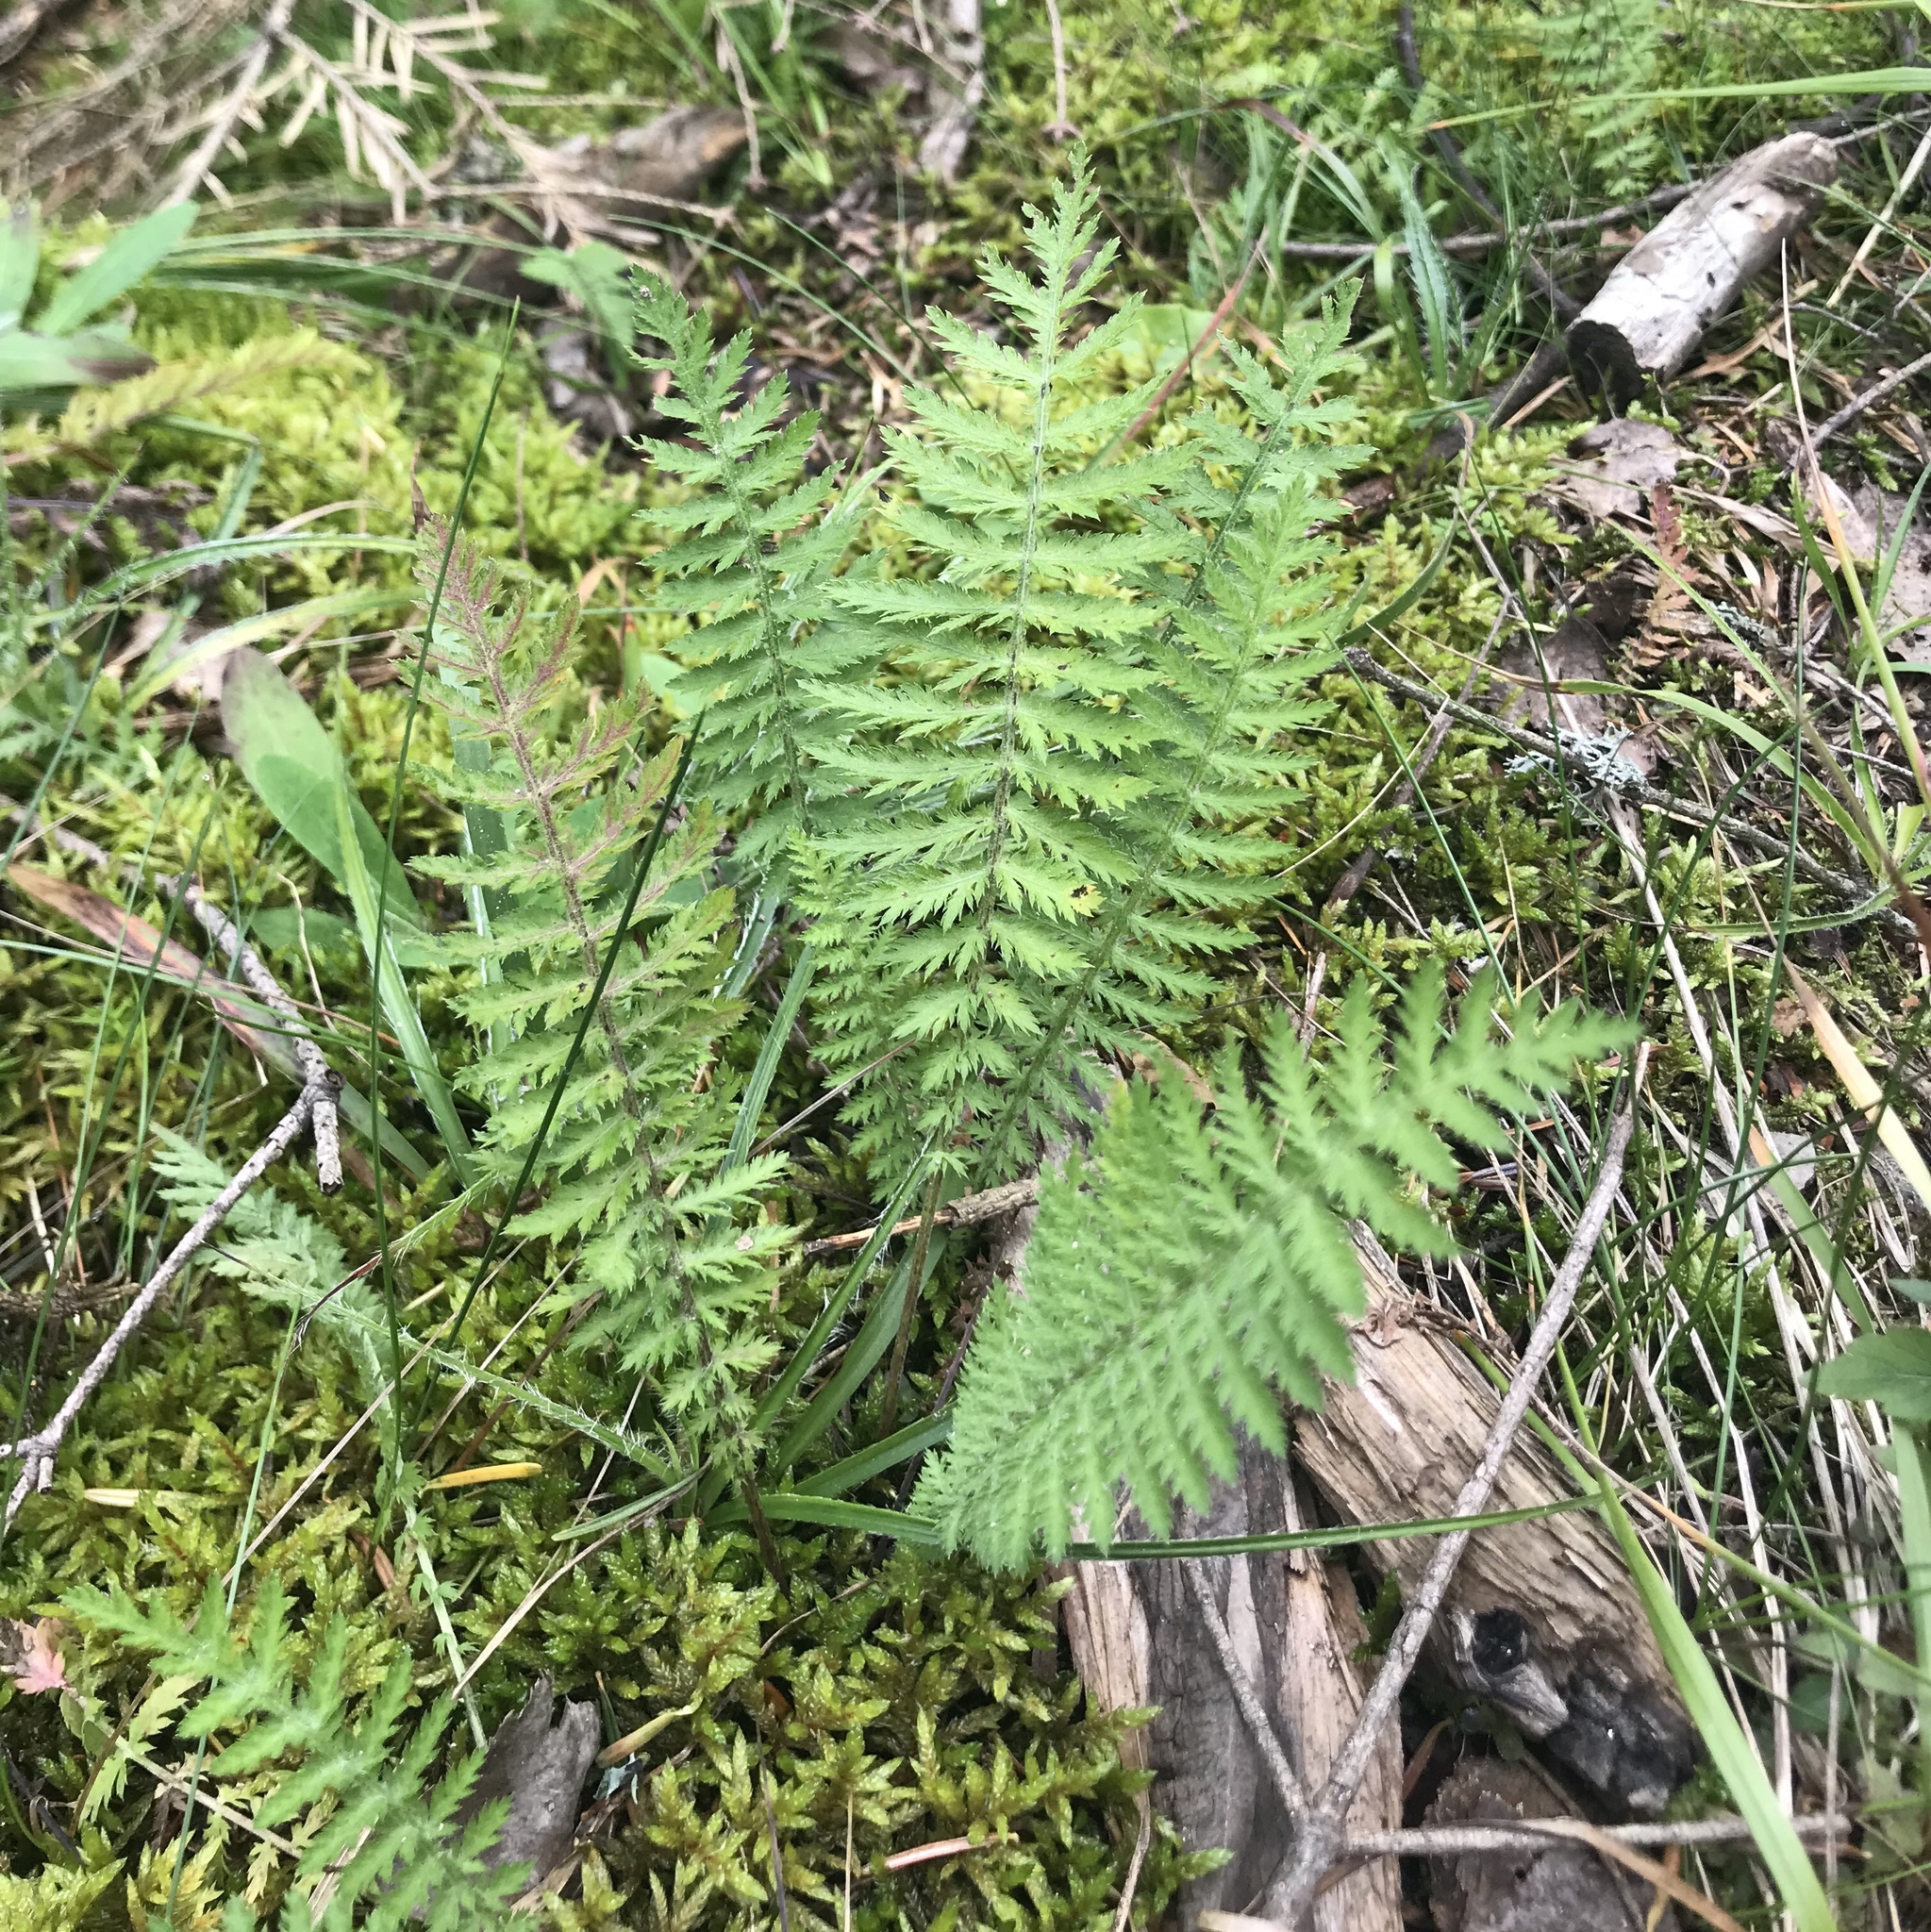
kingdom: Plantae
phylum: Tracheophyta
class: Magnoliopsida
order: Rosales
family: Rosaceae
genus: Filipendula
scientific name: Filipendula vulgaris
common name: Dropwort
